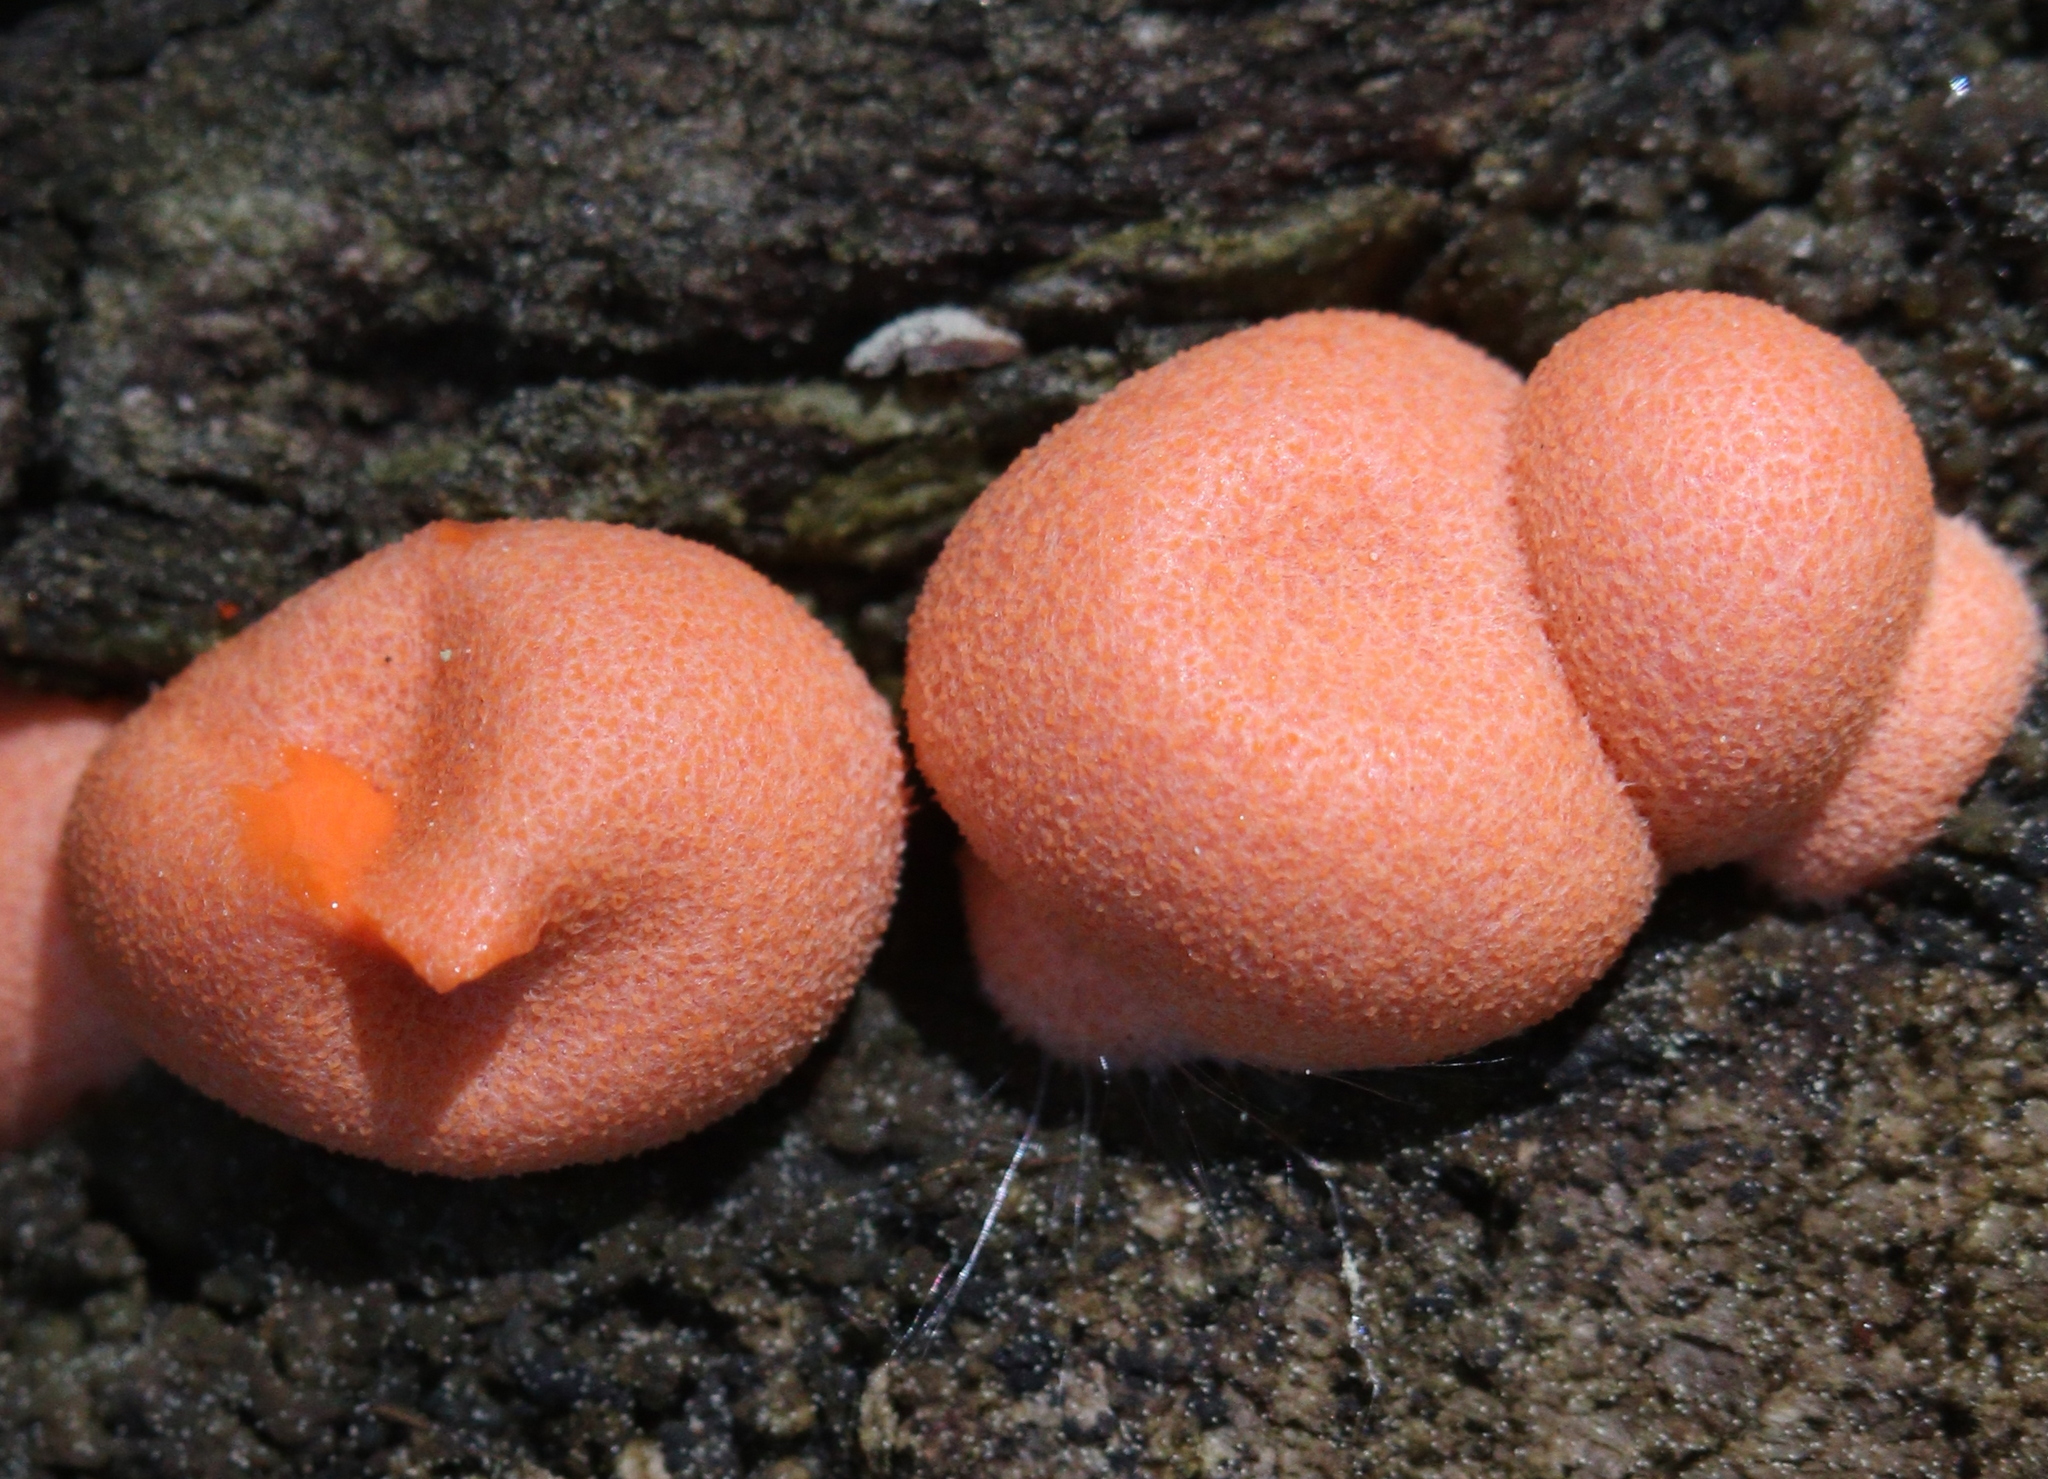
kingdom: Protozoa
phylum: Mycetozoa
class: Myxomycetes
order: Cribrariales
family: Tubiferaceae
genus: Lycogala
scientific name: Lycogala epidendrum
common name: Wolf's milk
